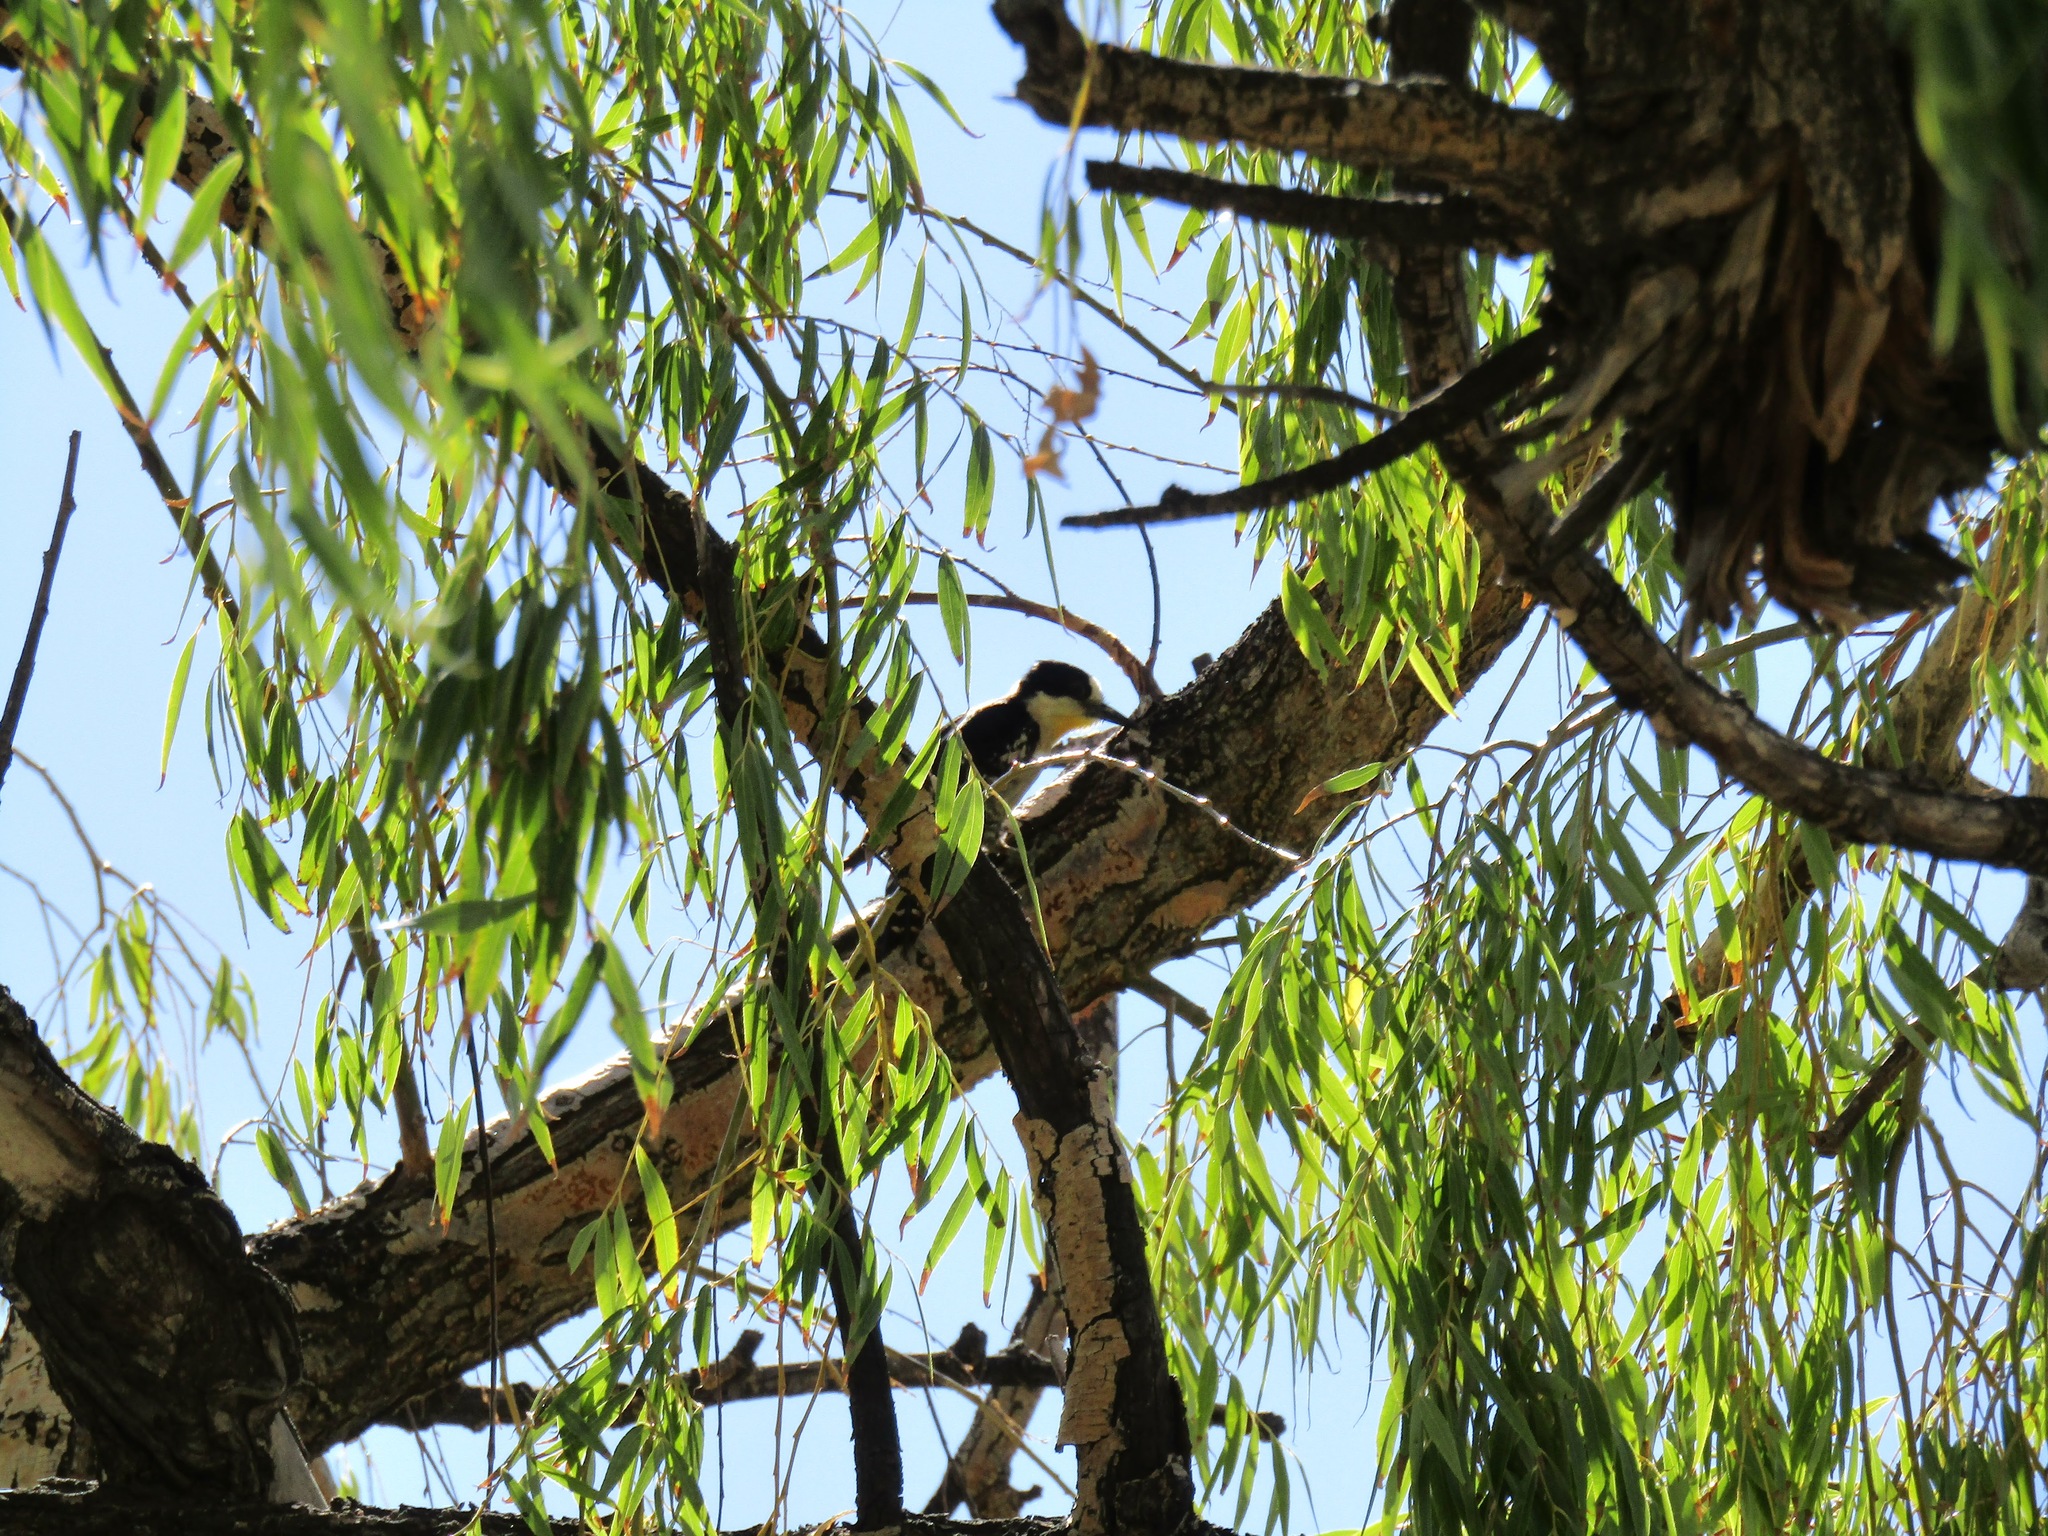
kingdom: Animalia
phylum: Chordata
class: Aves
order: Piciformes
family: Picidae
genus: Melanerpes
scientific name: Melanerpes cactorum
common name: White-fronted woodpecker
